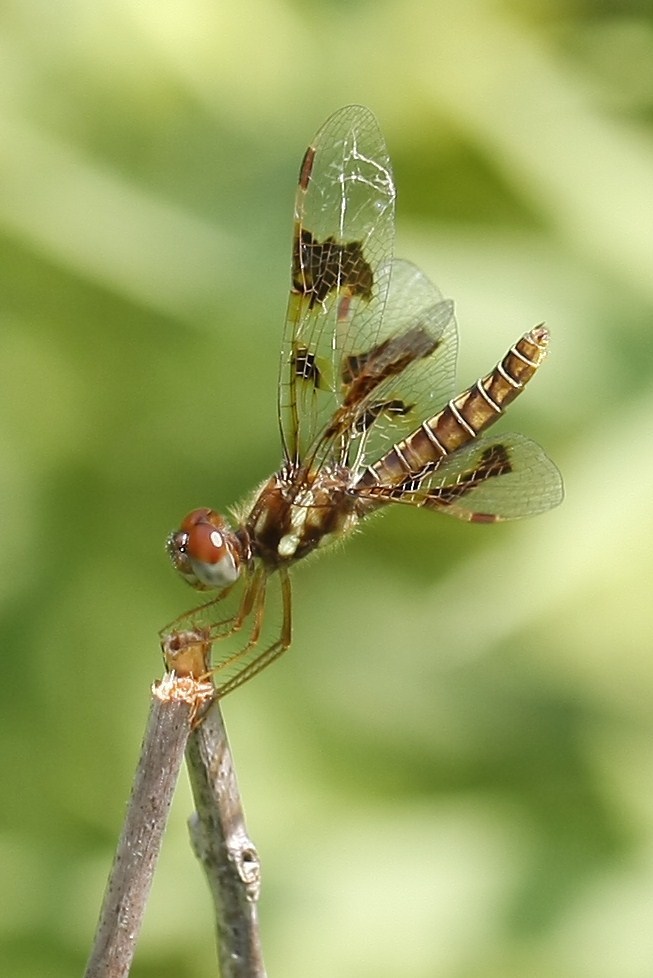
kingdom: Animalia
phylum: Arthropoda
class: Insecta
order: Odonata
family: Libellulidae
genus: Perithemis
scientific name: Perithemis tenera
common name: Eastern amberwing
